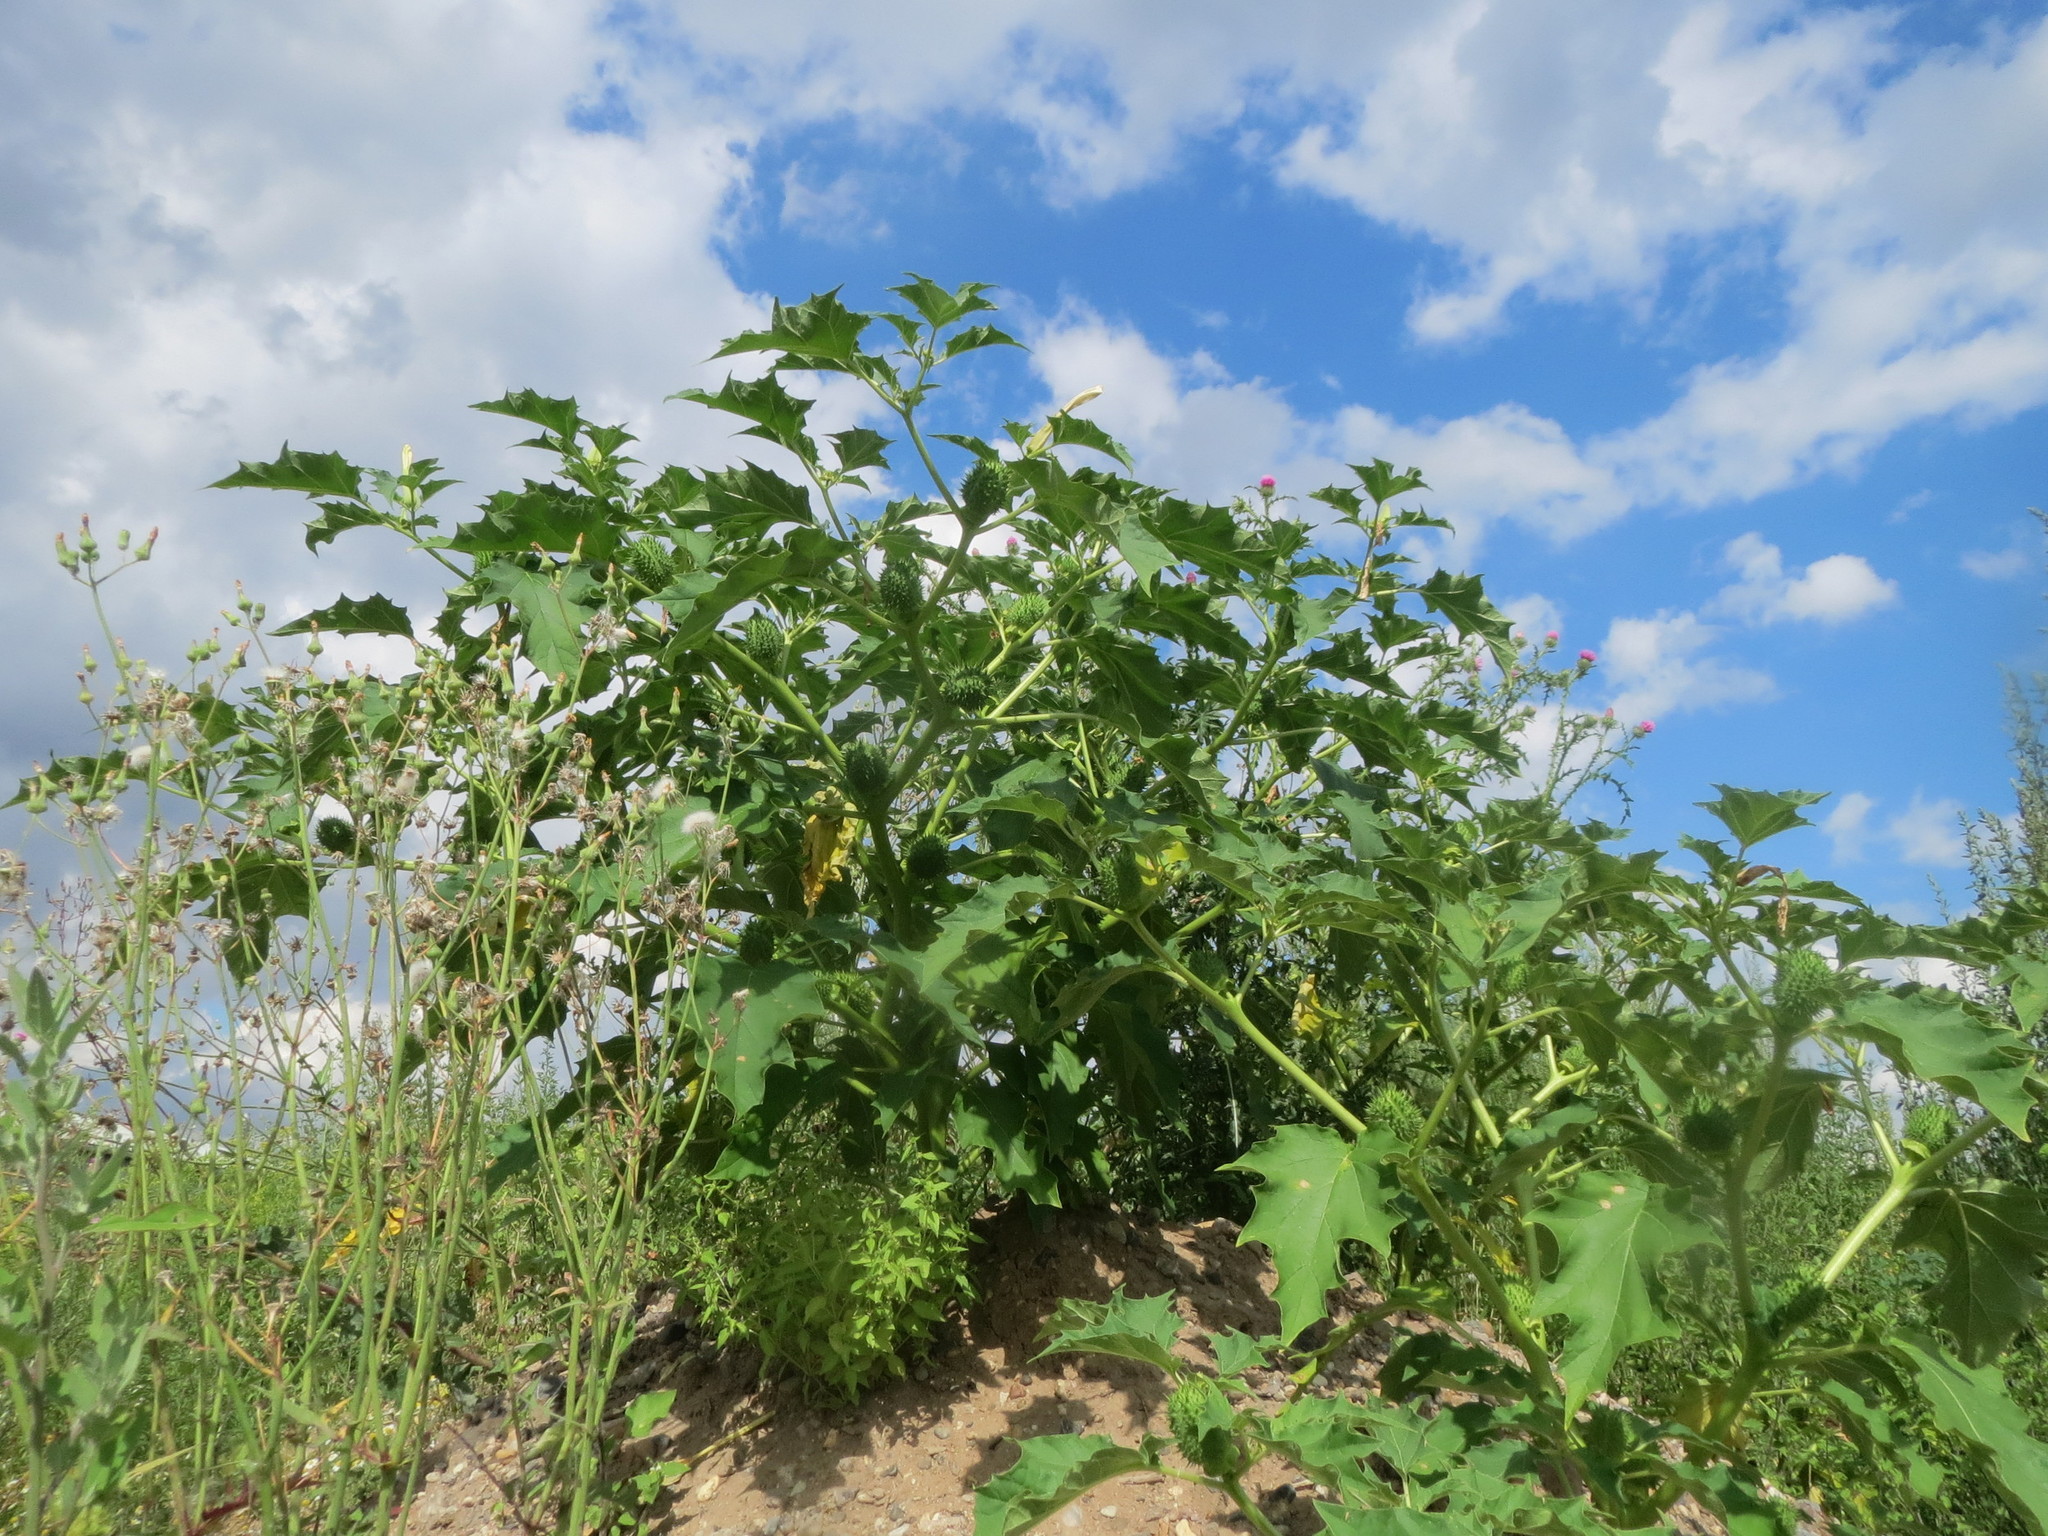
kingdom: Plantae
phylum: Tracheophyta
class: Magnoliopsida
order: Solanales
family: Solanaceae
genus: Datura
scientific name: Datura stramonium
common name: Thorn-apple
